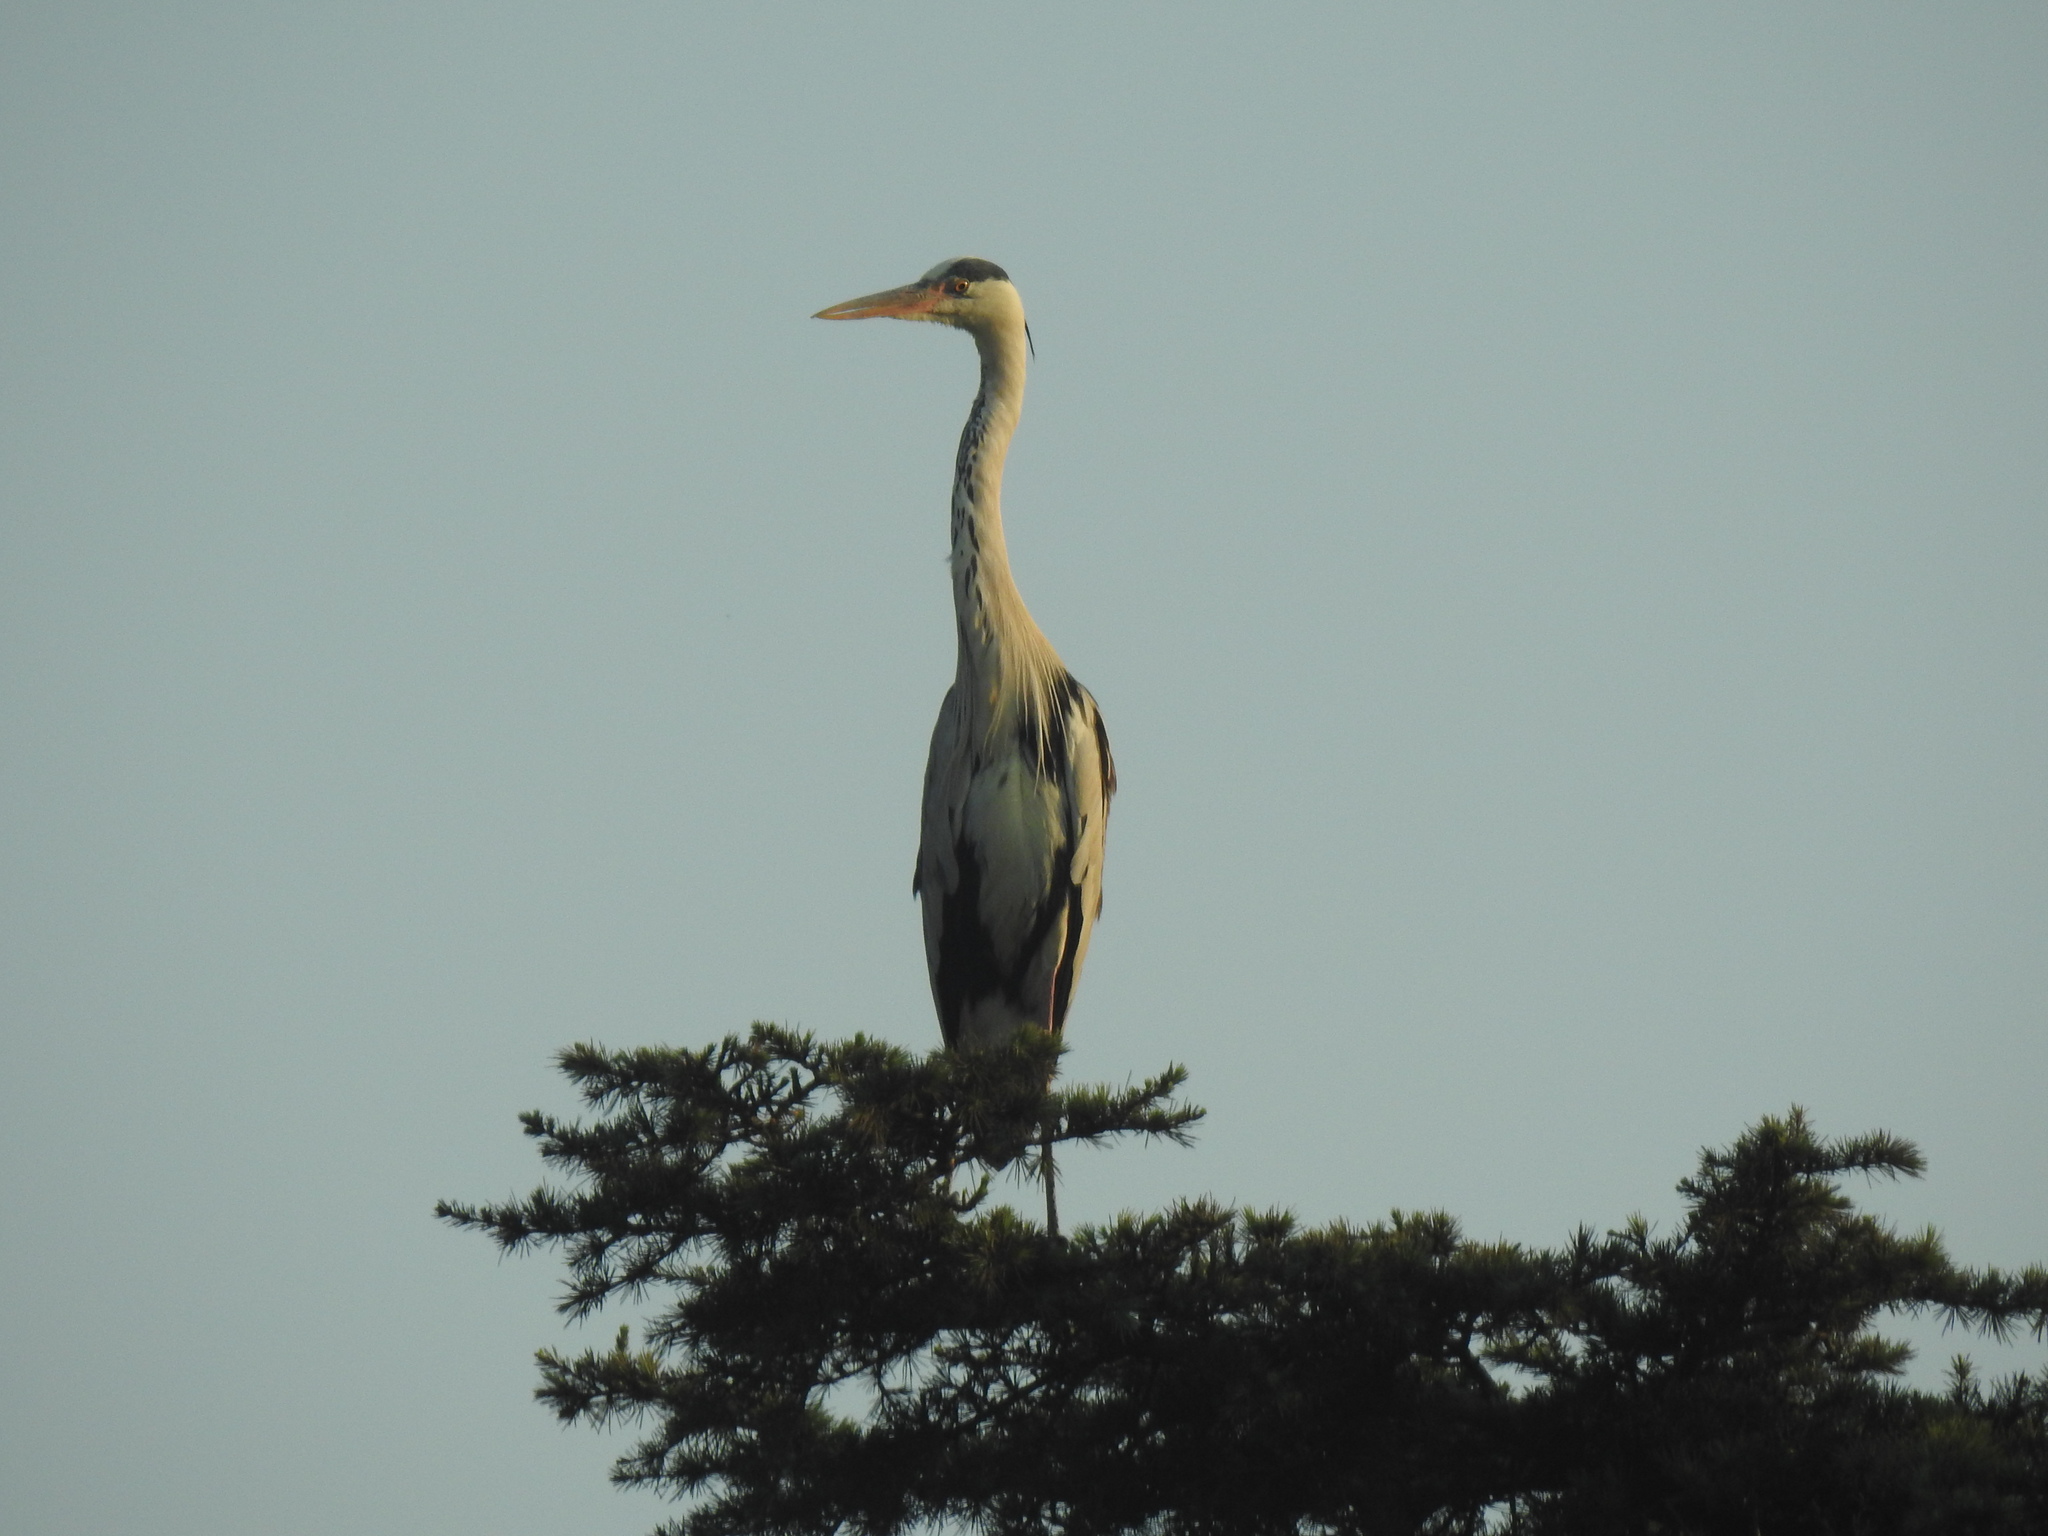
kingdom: Animalia
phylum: Chordata
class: Aves
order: Pelecaniformes
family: Ardeidae
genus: Ardea
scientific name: Ardea cinerea
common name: Grey heron
